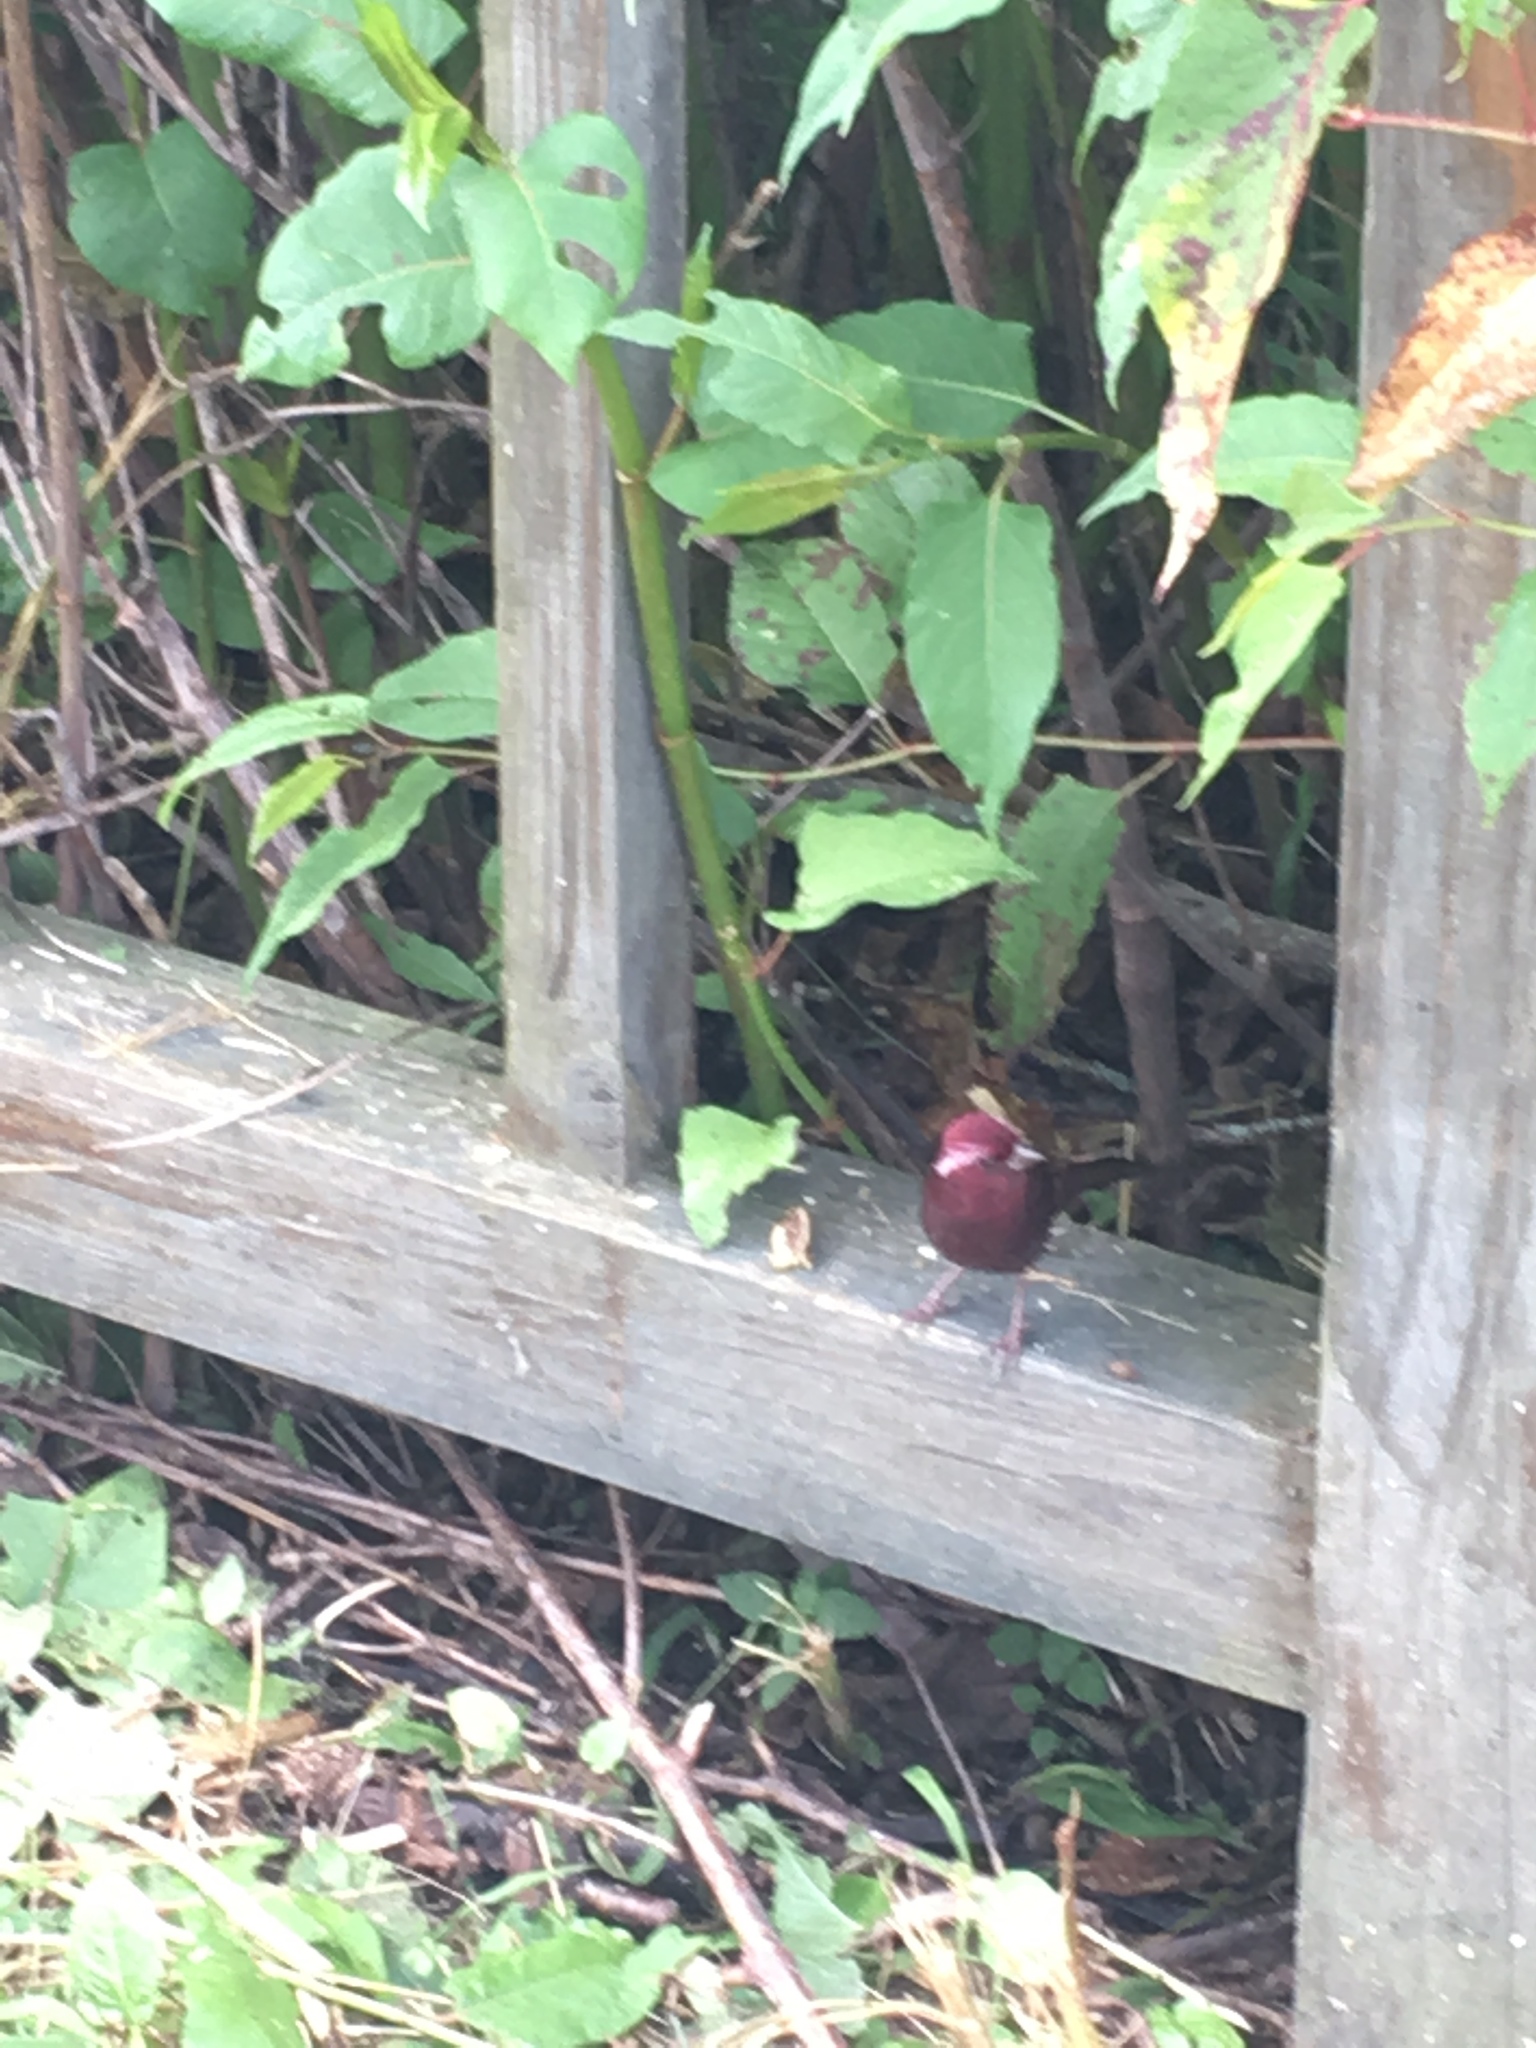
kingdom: Animalia
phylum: Chordata
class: Aves
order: Passeriformes
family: Fringillidae
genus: Carpodacus
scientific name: Carpodacus formosanus
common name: Taiwan rosefinch
